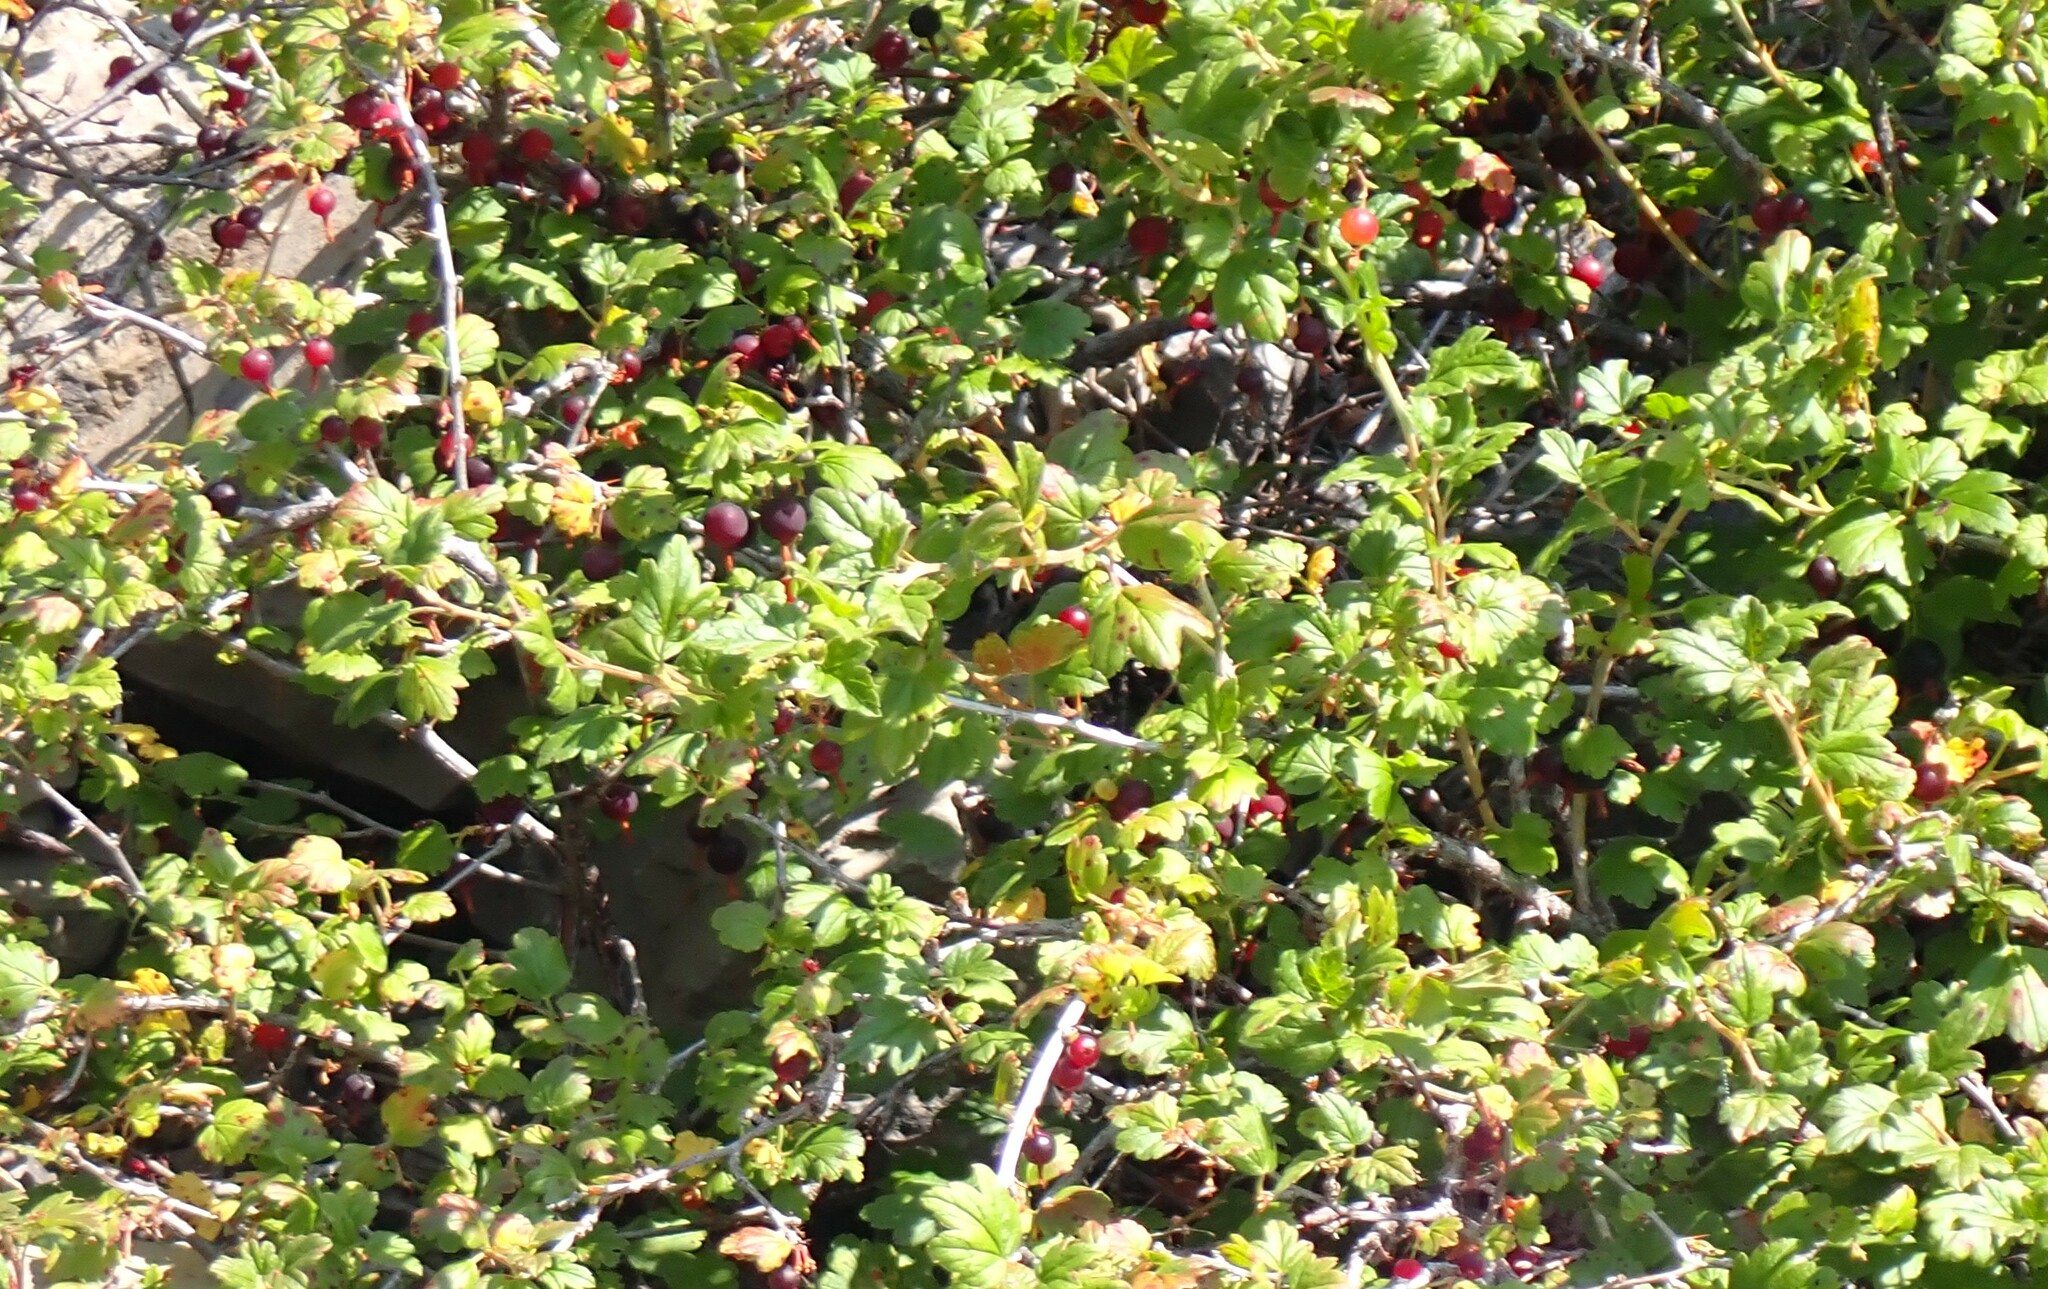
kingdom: Plantae
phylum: Tracheophyta
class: Magnoliopsida
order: Saxifragales
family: Grossulariaceae
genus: Ribes
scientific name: Ribes oxyacanthoides
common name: Northern gooseberry
